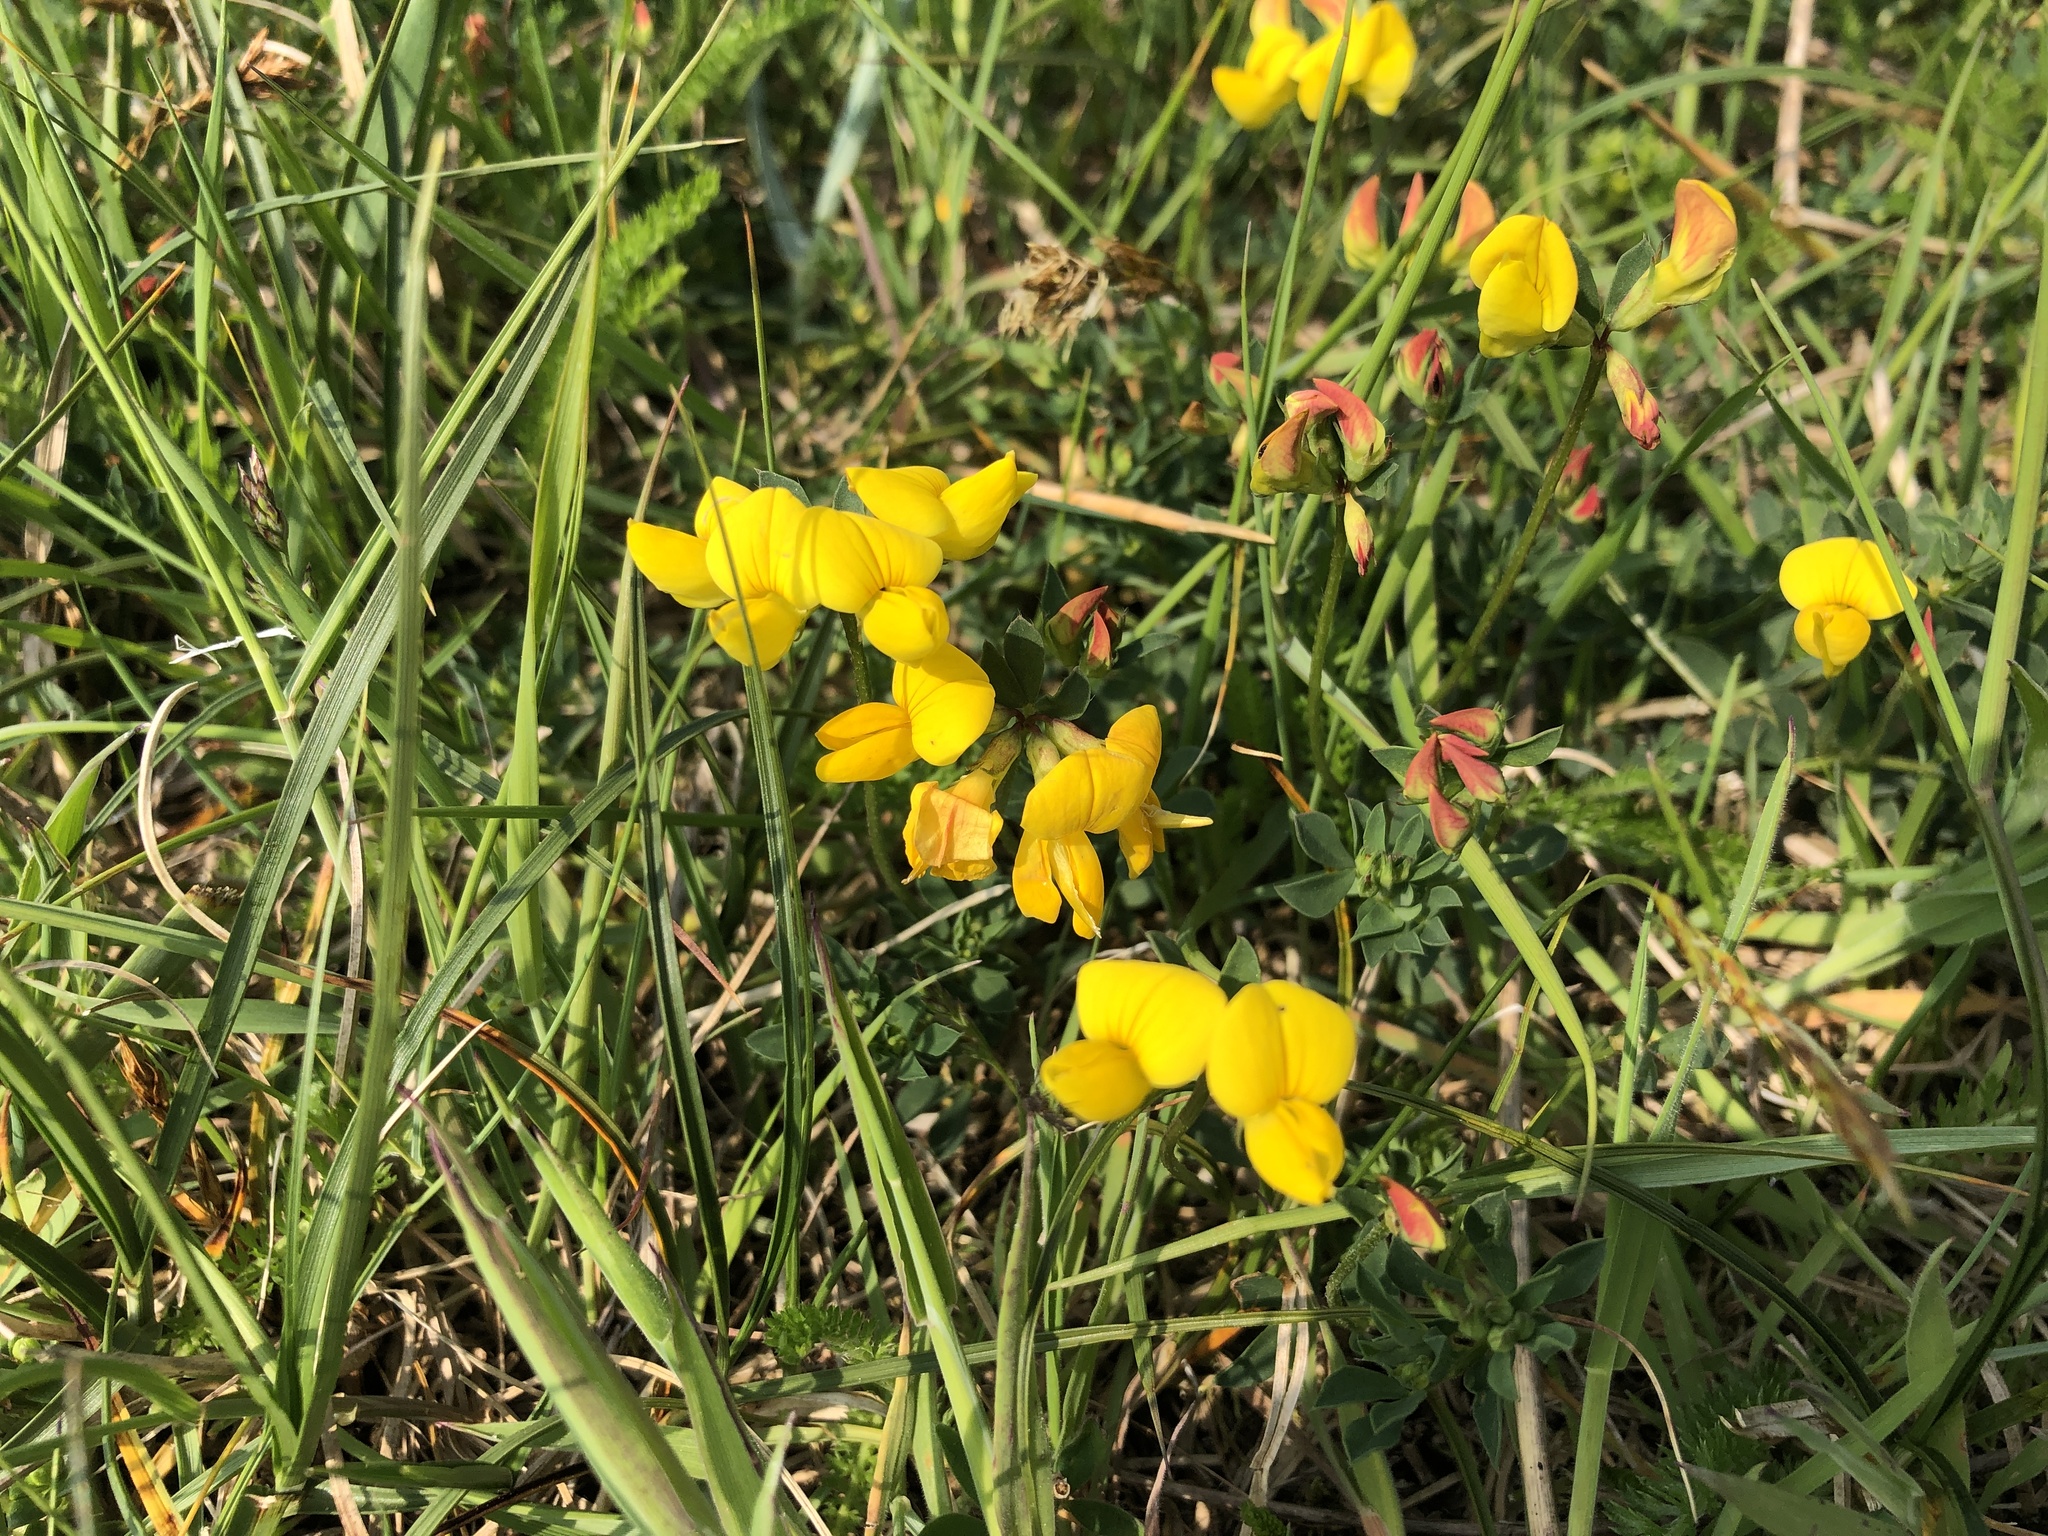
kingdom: Plantae
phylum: Tracheophyta
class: Magnoliopsida
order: Fabales
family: Fabaceae
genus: Lotus
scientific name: Lotus corniculatus
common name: Common bird's-foot-trefoil
